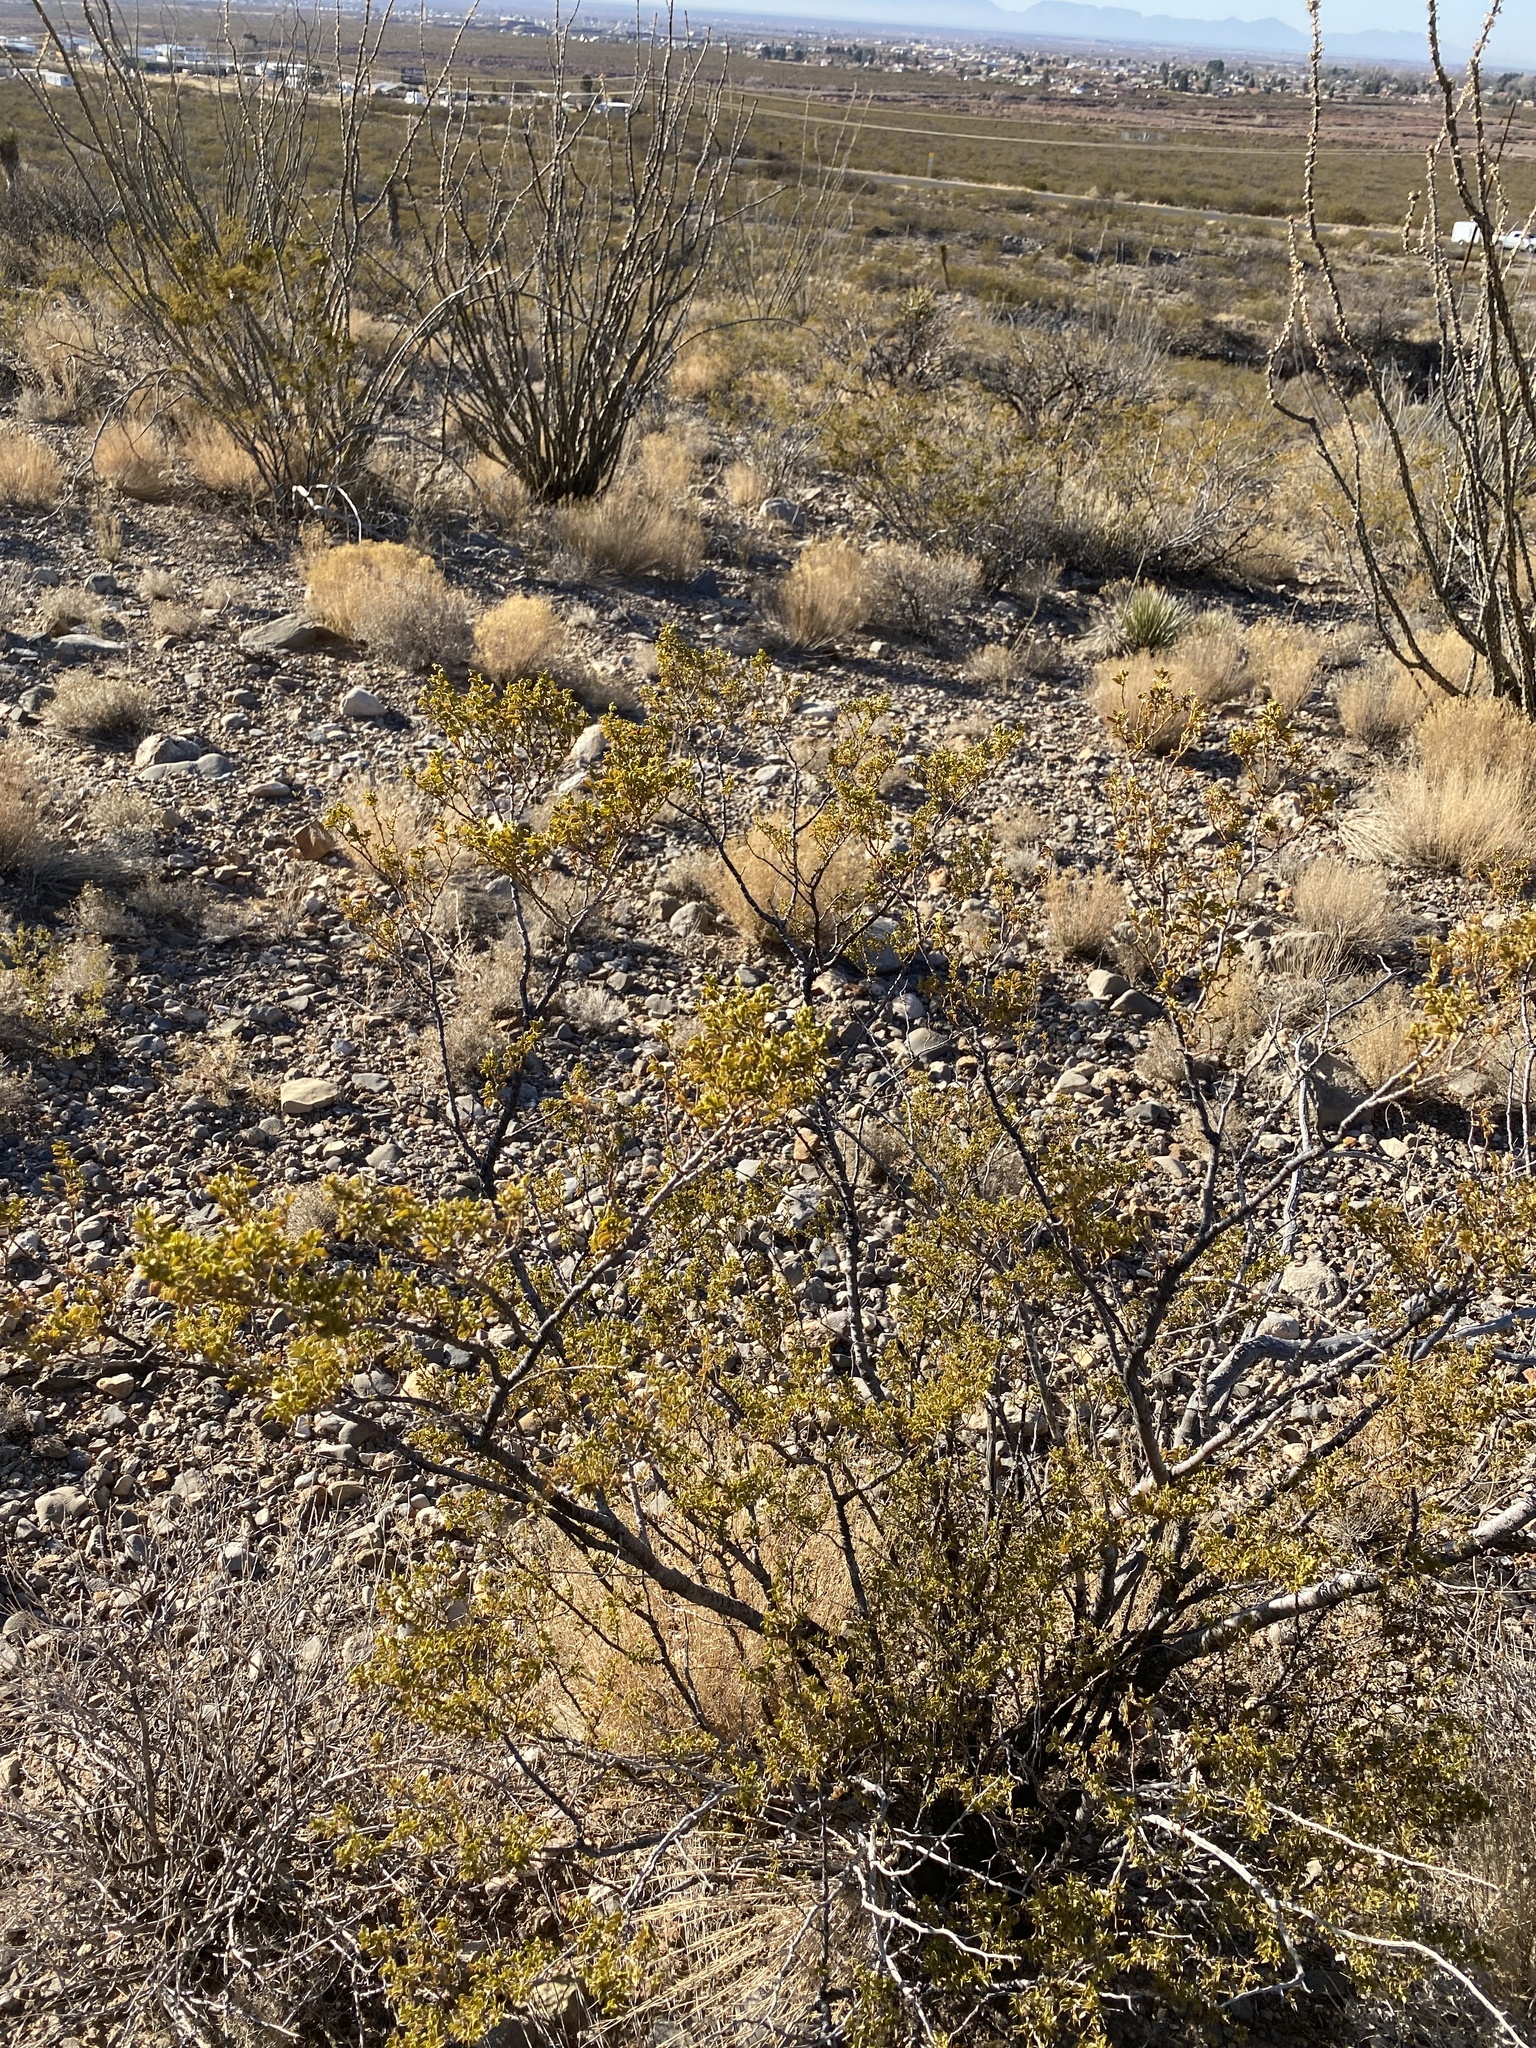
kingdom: Plantae
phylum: Tracheophyta
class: Magnoliopsida
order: Zygophyllales
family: Zygophyllaceae
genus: Larrea
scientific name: Larrea tridentata
